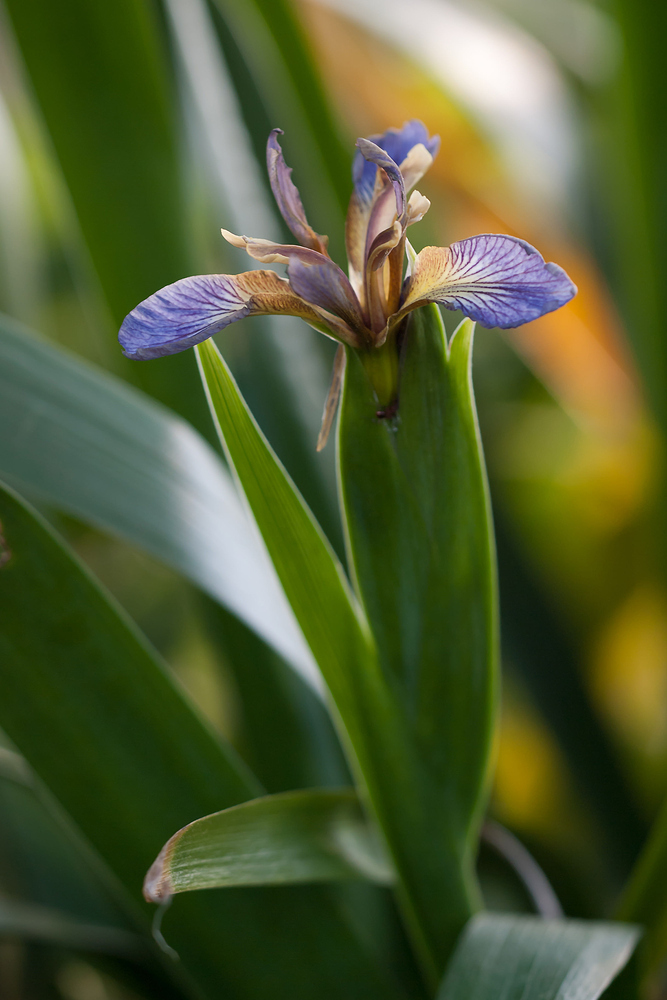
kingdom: Plantae
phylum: Tracheophyta
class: Liliopsida
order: Asparagales
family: Iridaceae
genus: Iris
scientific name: Iris foetidissima
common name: Stinking iris
